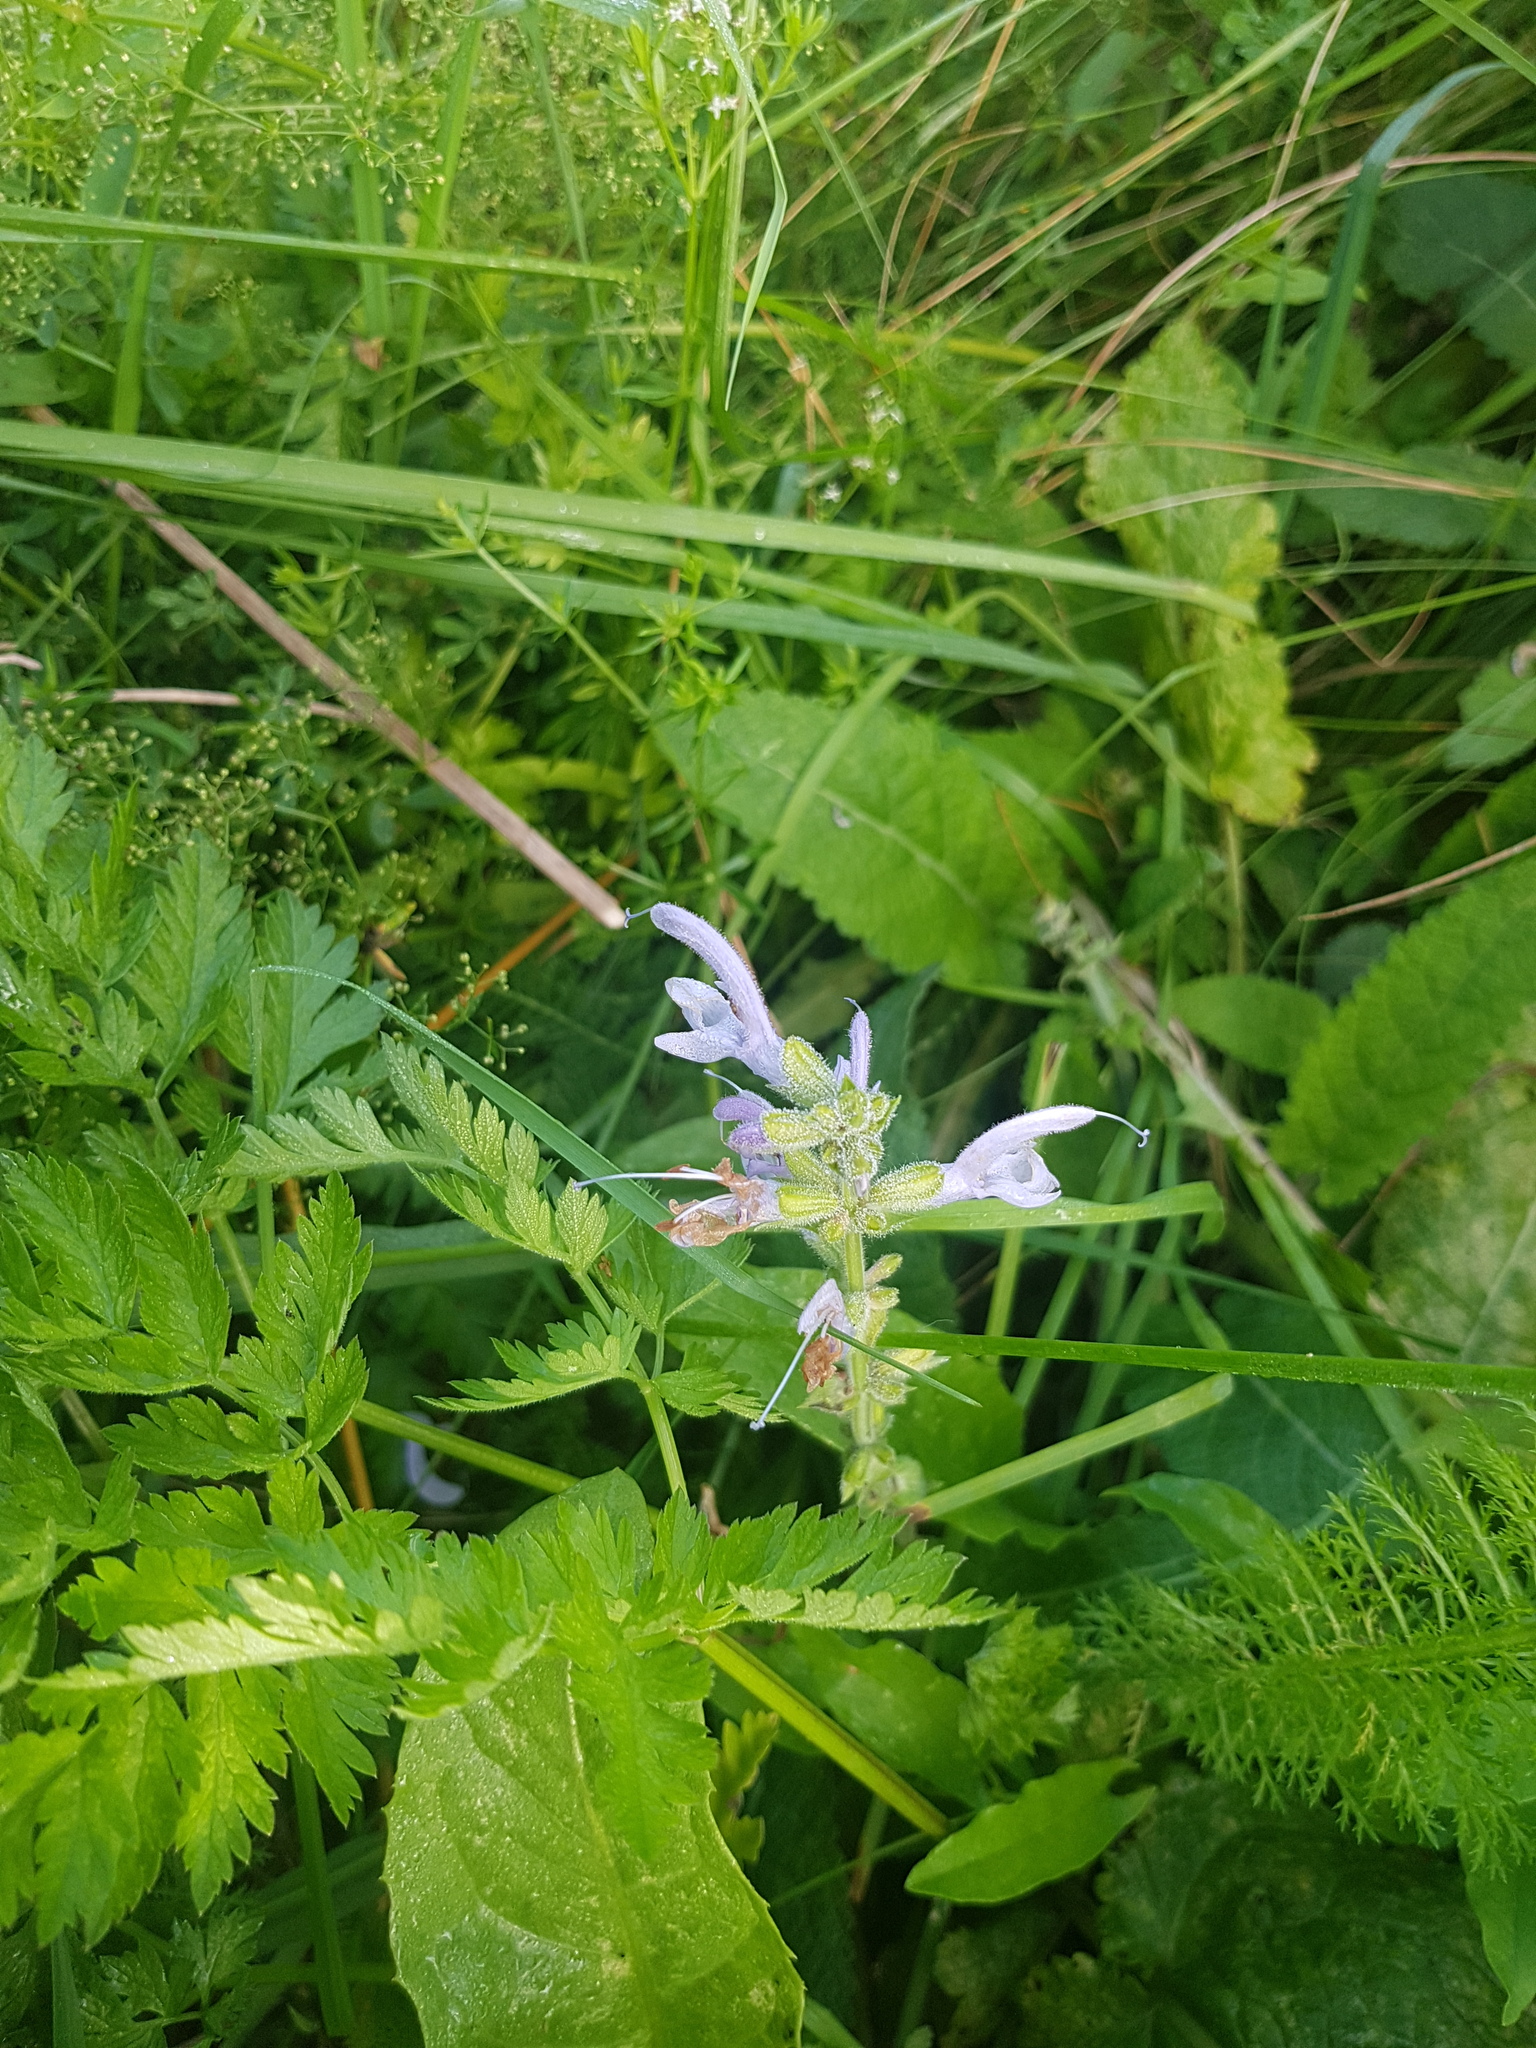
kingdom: Plantae
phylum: Tracheophyta
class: Magnoliopsida
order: Lamiales
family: Lamiaceae
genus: Salvia
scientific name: Salvia pratensis
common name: Meadow sage
